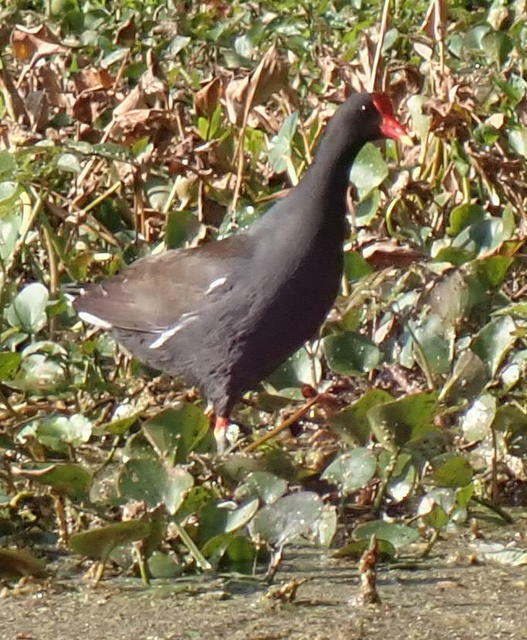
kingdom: Animalia
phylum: Chordata
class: Aves
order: Gruiformes
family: Rallidae
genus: Gallinula
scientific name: Gallinula chloropus
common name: Common moorhen
